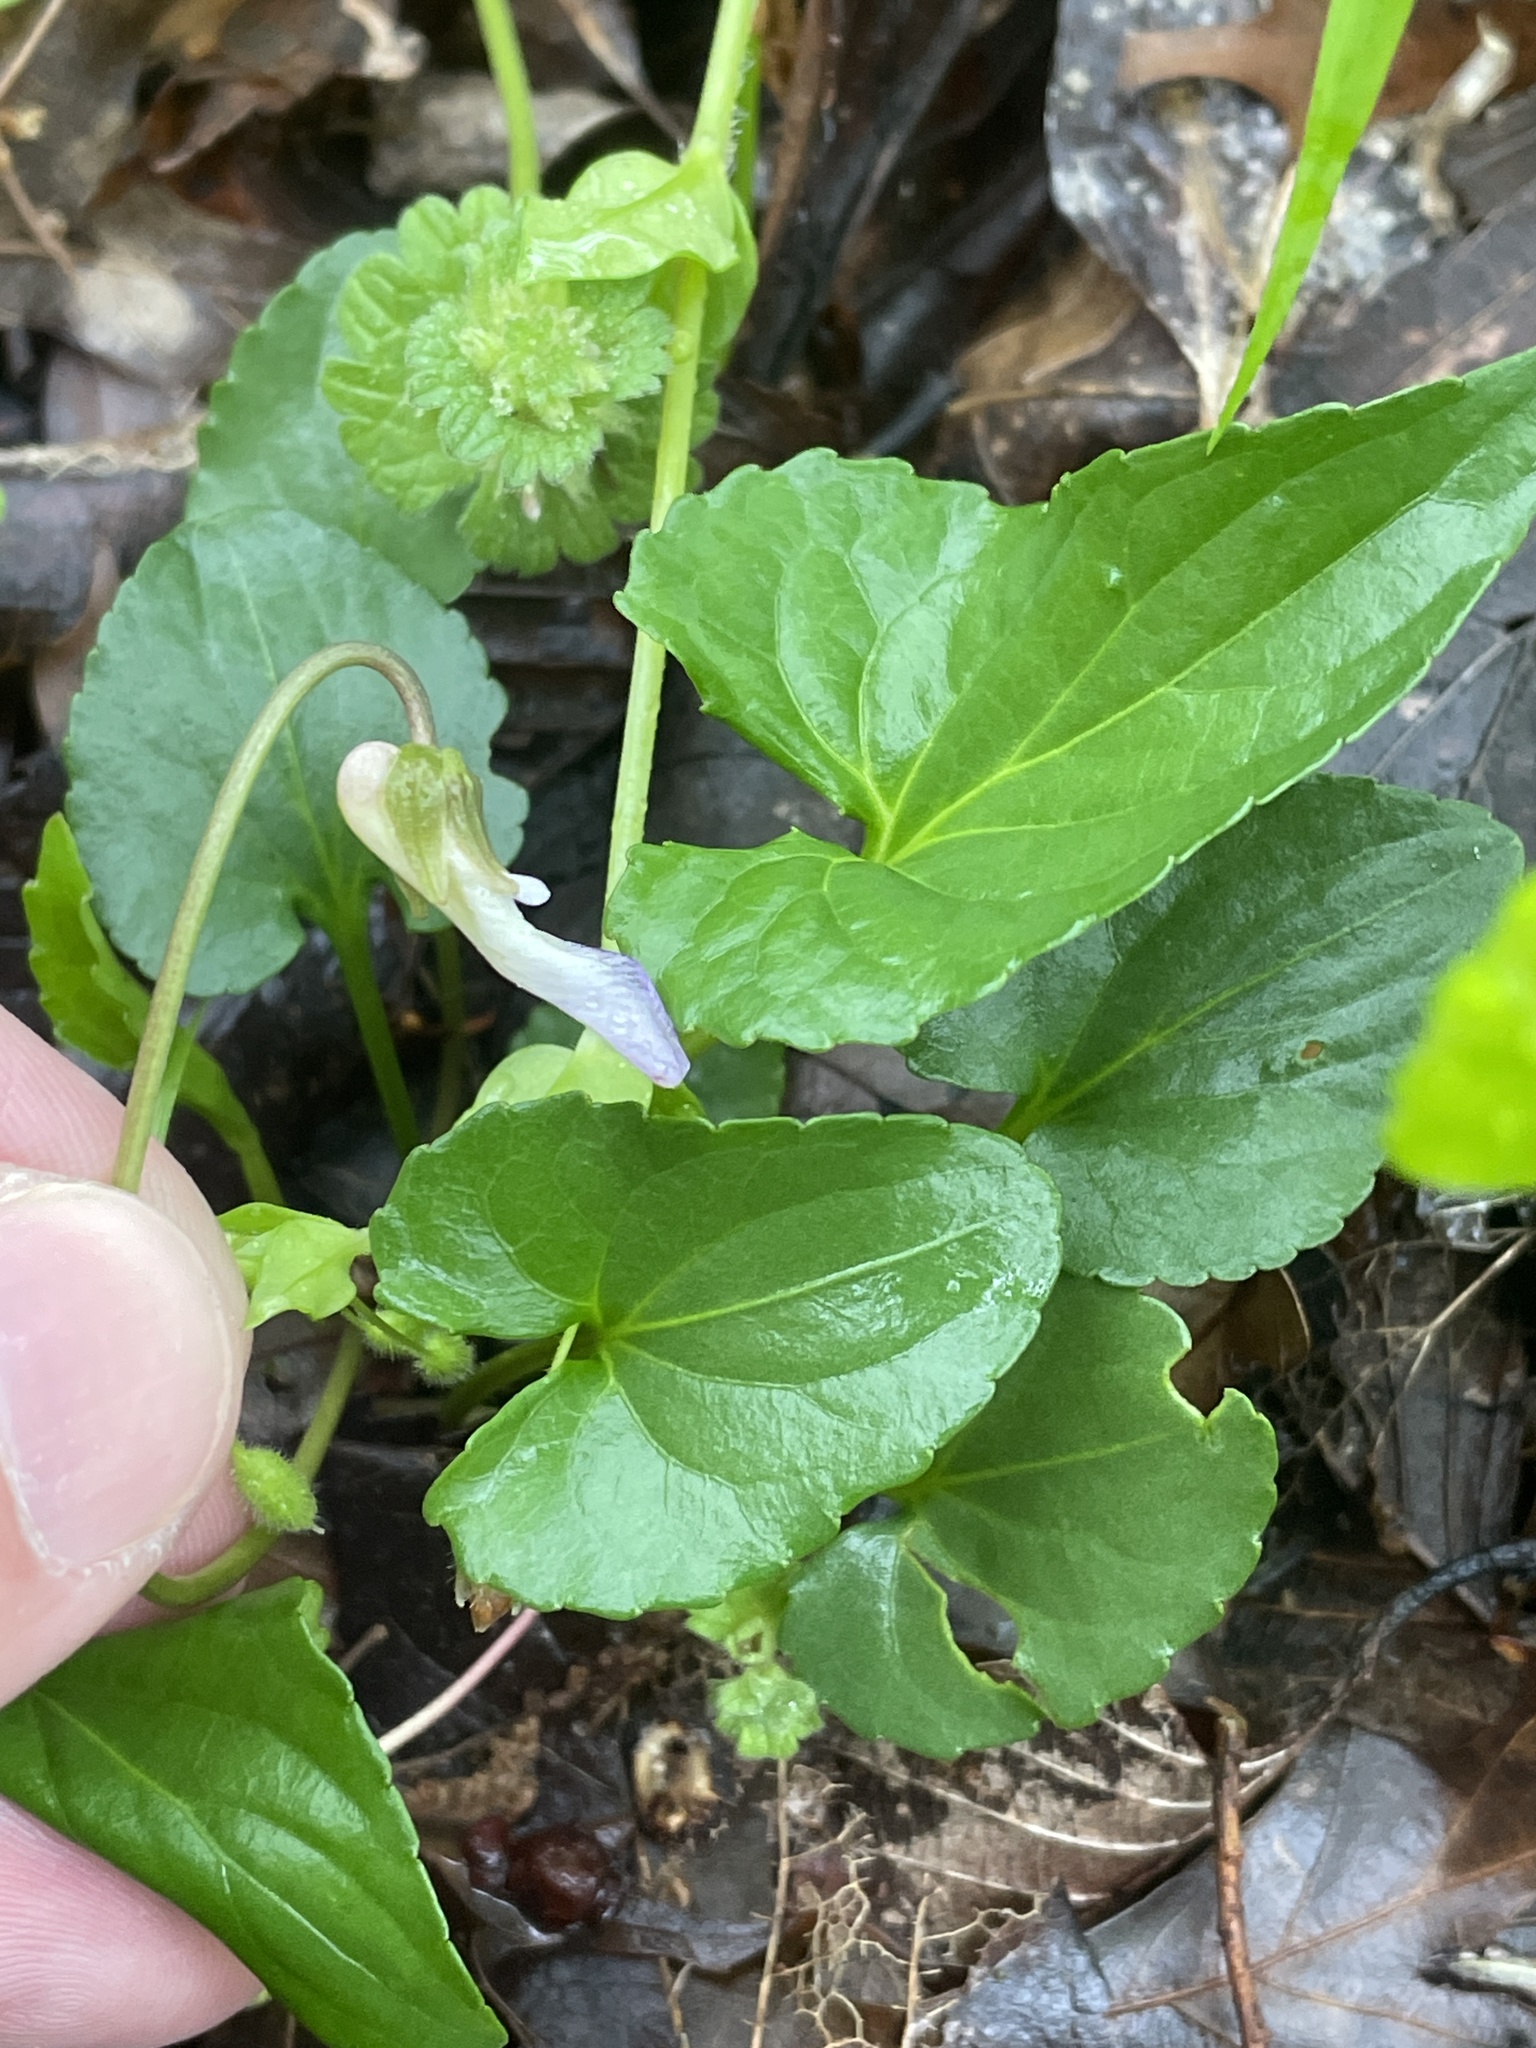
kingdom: Plantae
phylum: Tracheophyta
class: Magnoliopsida
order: Malpighiales
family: Violaceae
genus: Viola
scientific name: Viola missouriensis
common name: Missouri violet
